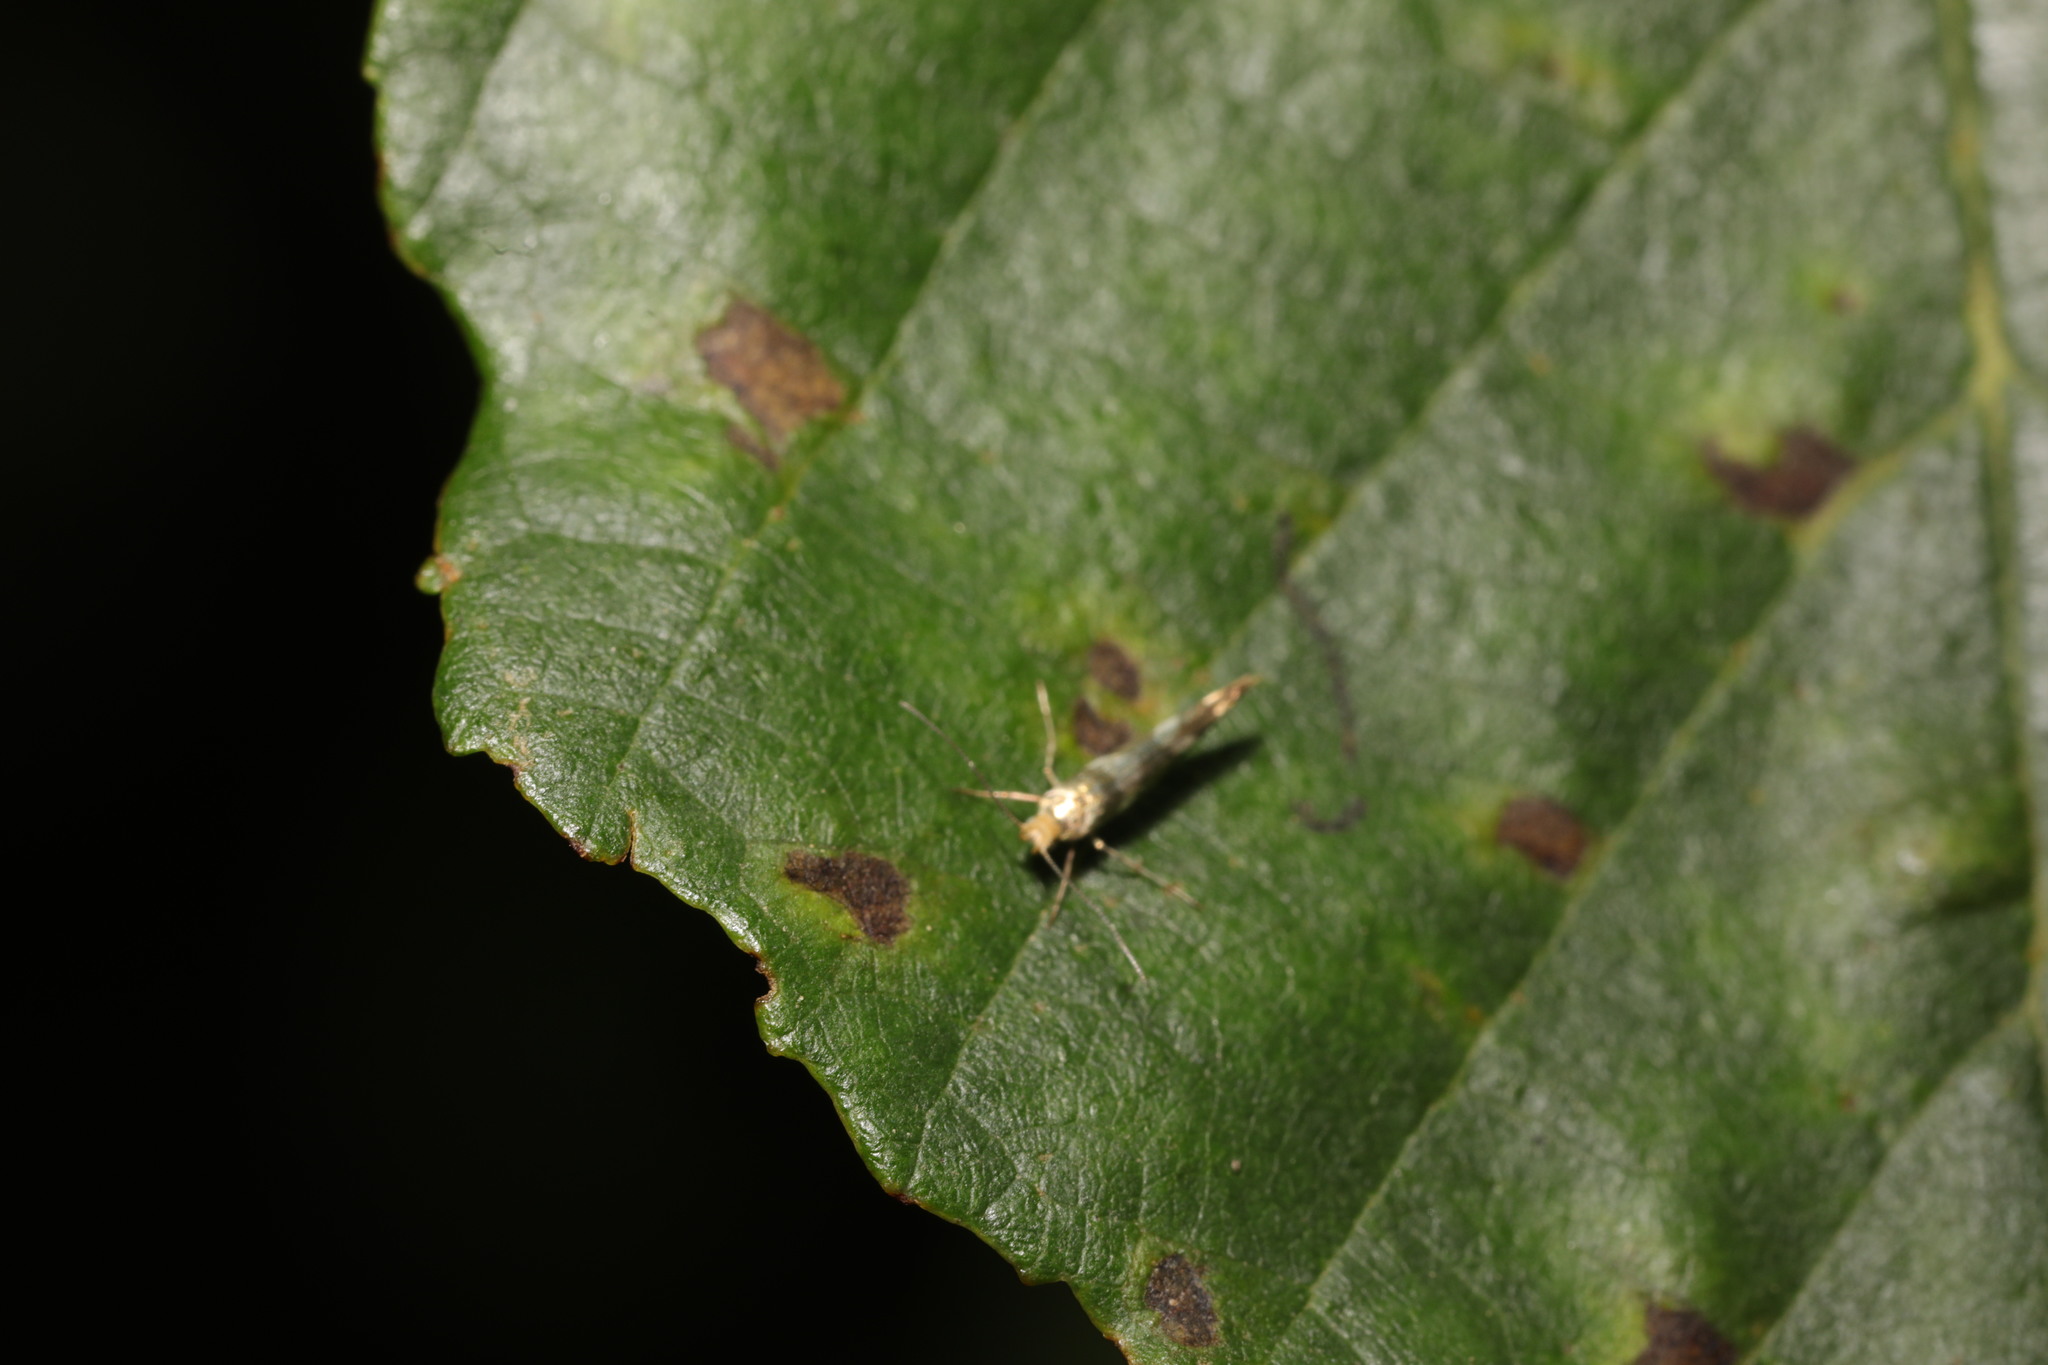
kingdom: Animalia
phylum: Arthropoda
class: Insecta
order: Lepidoptera
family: Argyresthiidae
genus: Argyresthia
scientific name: Argyresthia goedartella
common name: Golden argent
